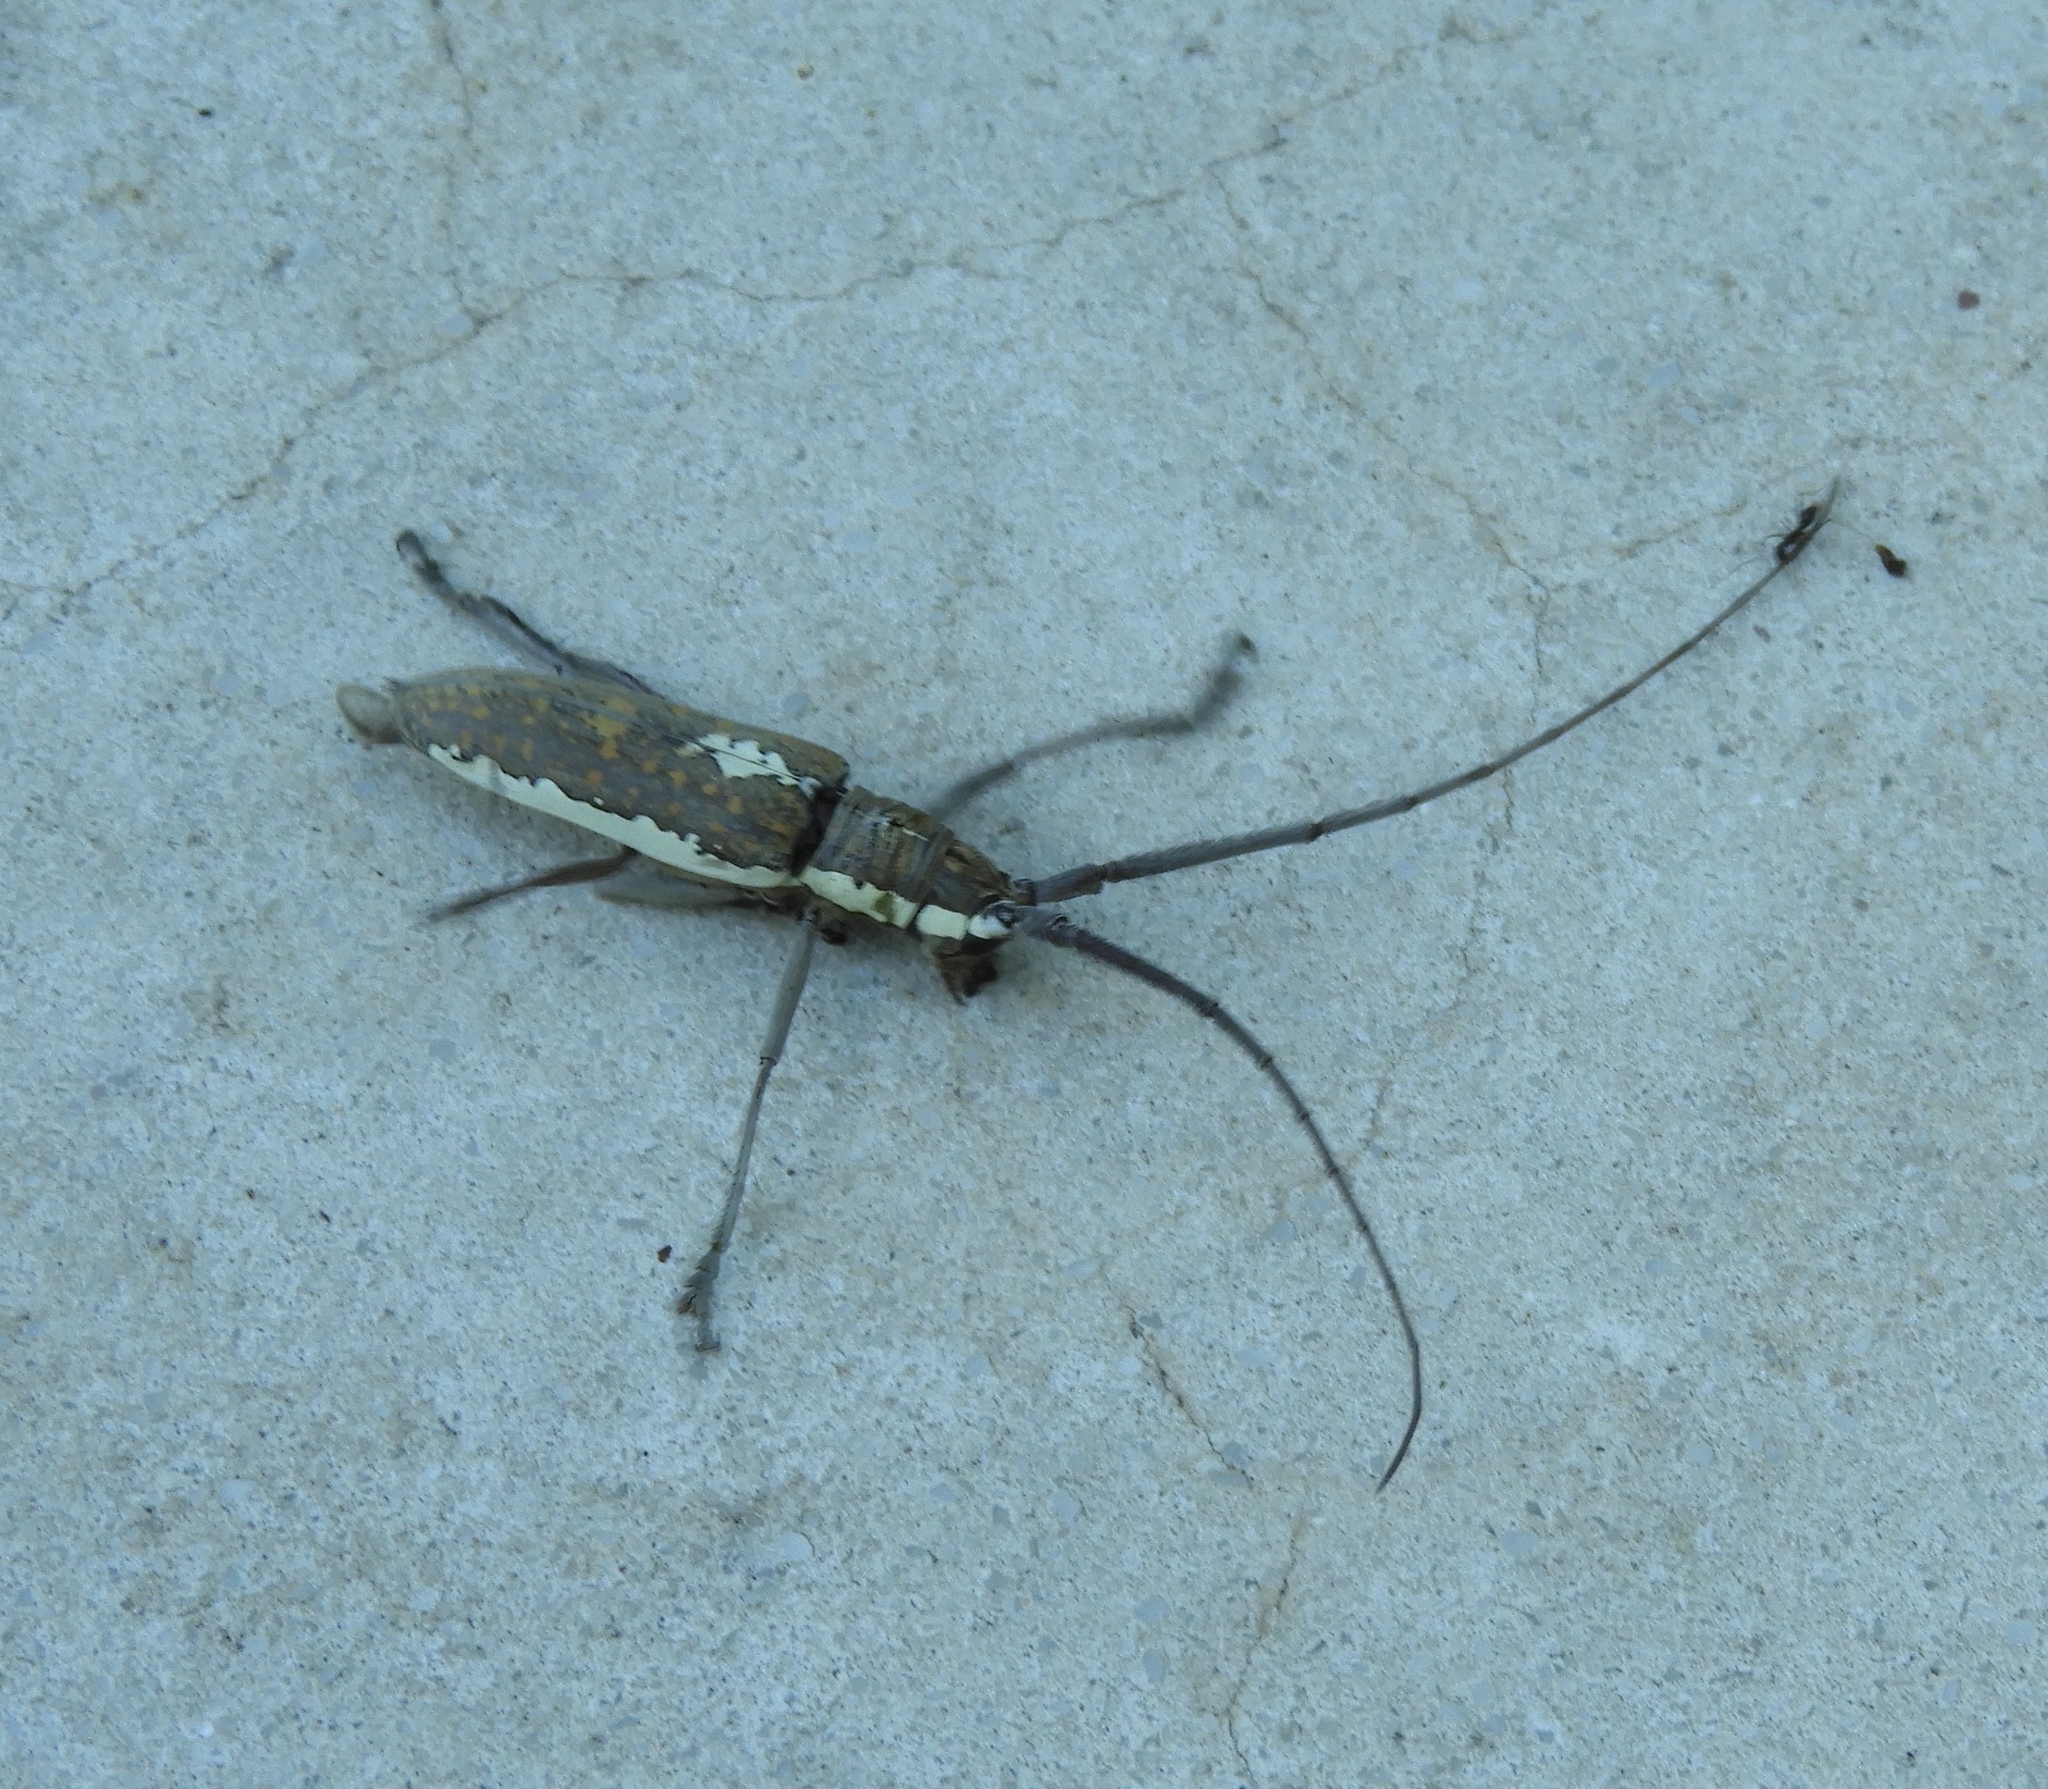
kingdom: Animalia
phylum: Arthropoda
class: Insecta
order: Coleoptera
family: Cerambycidae
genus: Neoptychodes
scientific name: Neoptychodes trilineatus
